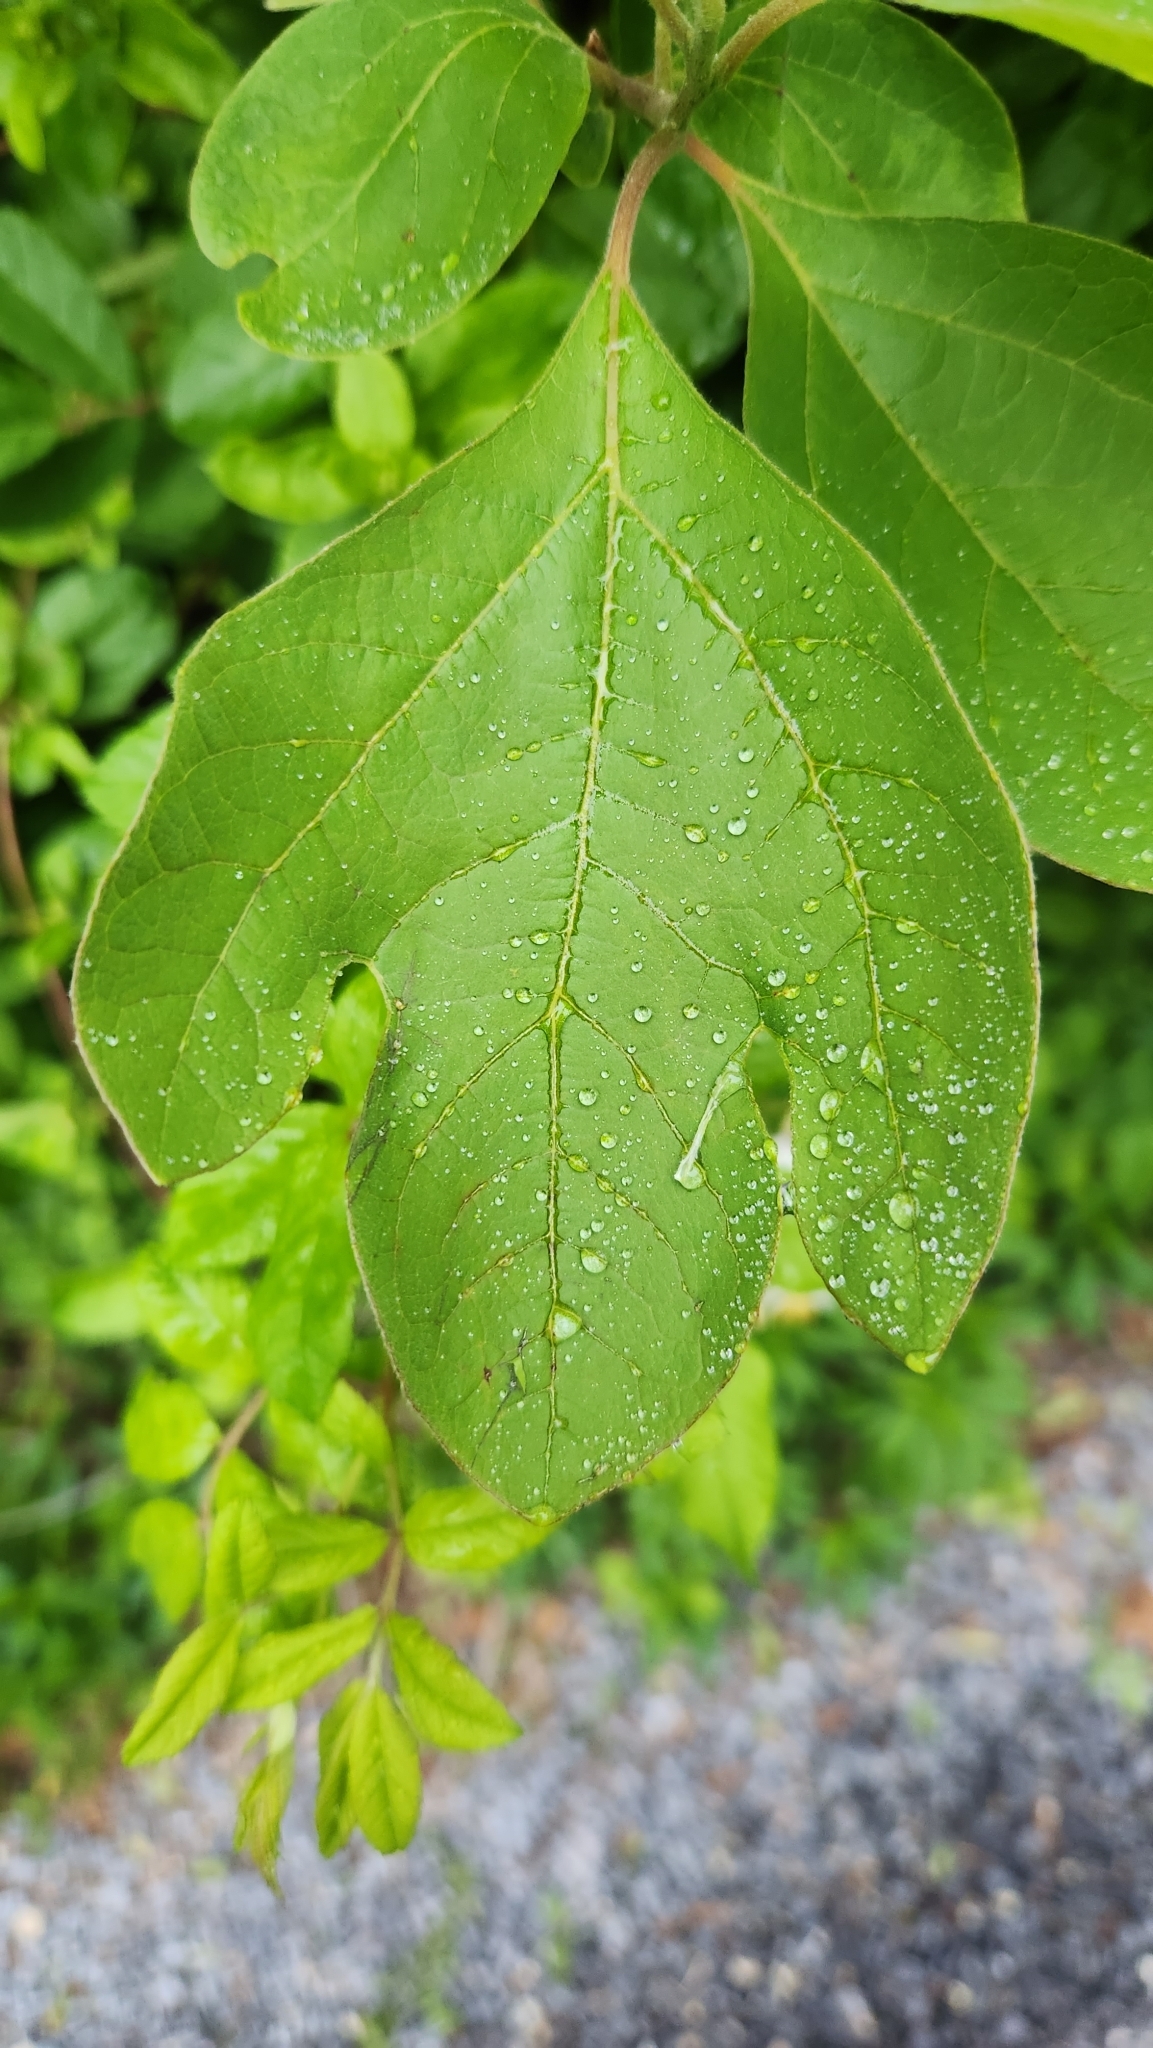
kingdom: Plantae
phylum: Tracheophyta
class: Magnoliopsida
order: Laurales
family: Lauraceae
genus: Sassafras
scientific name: Sassafras albidum
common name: Sassafras
